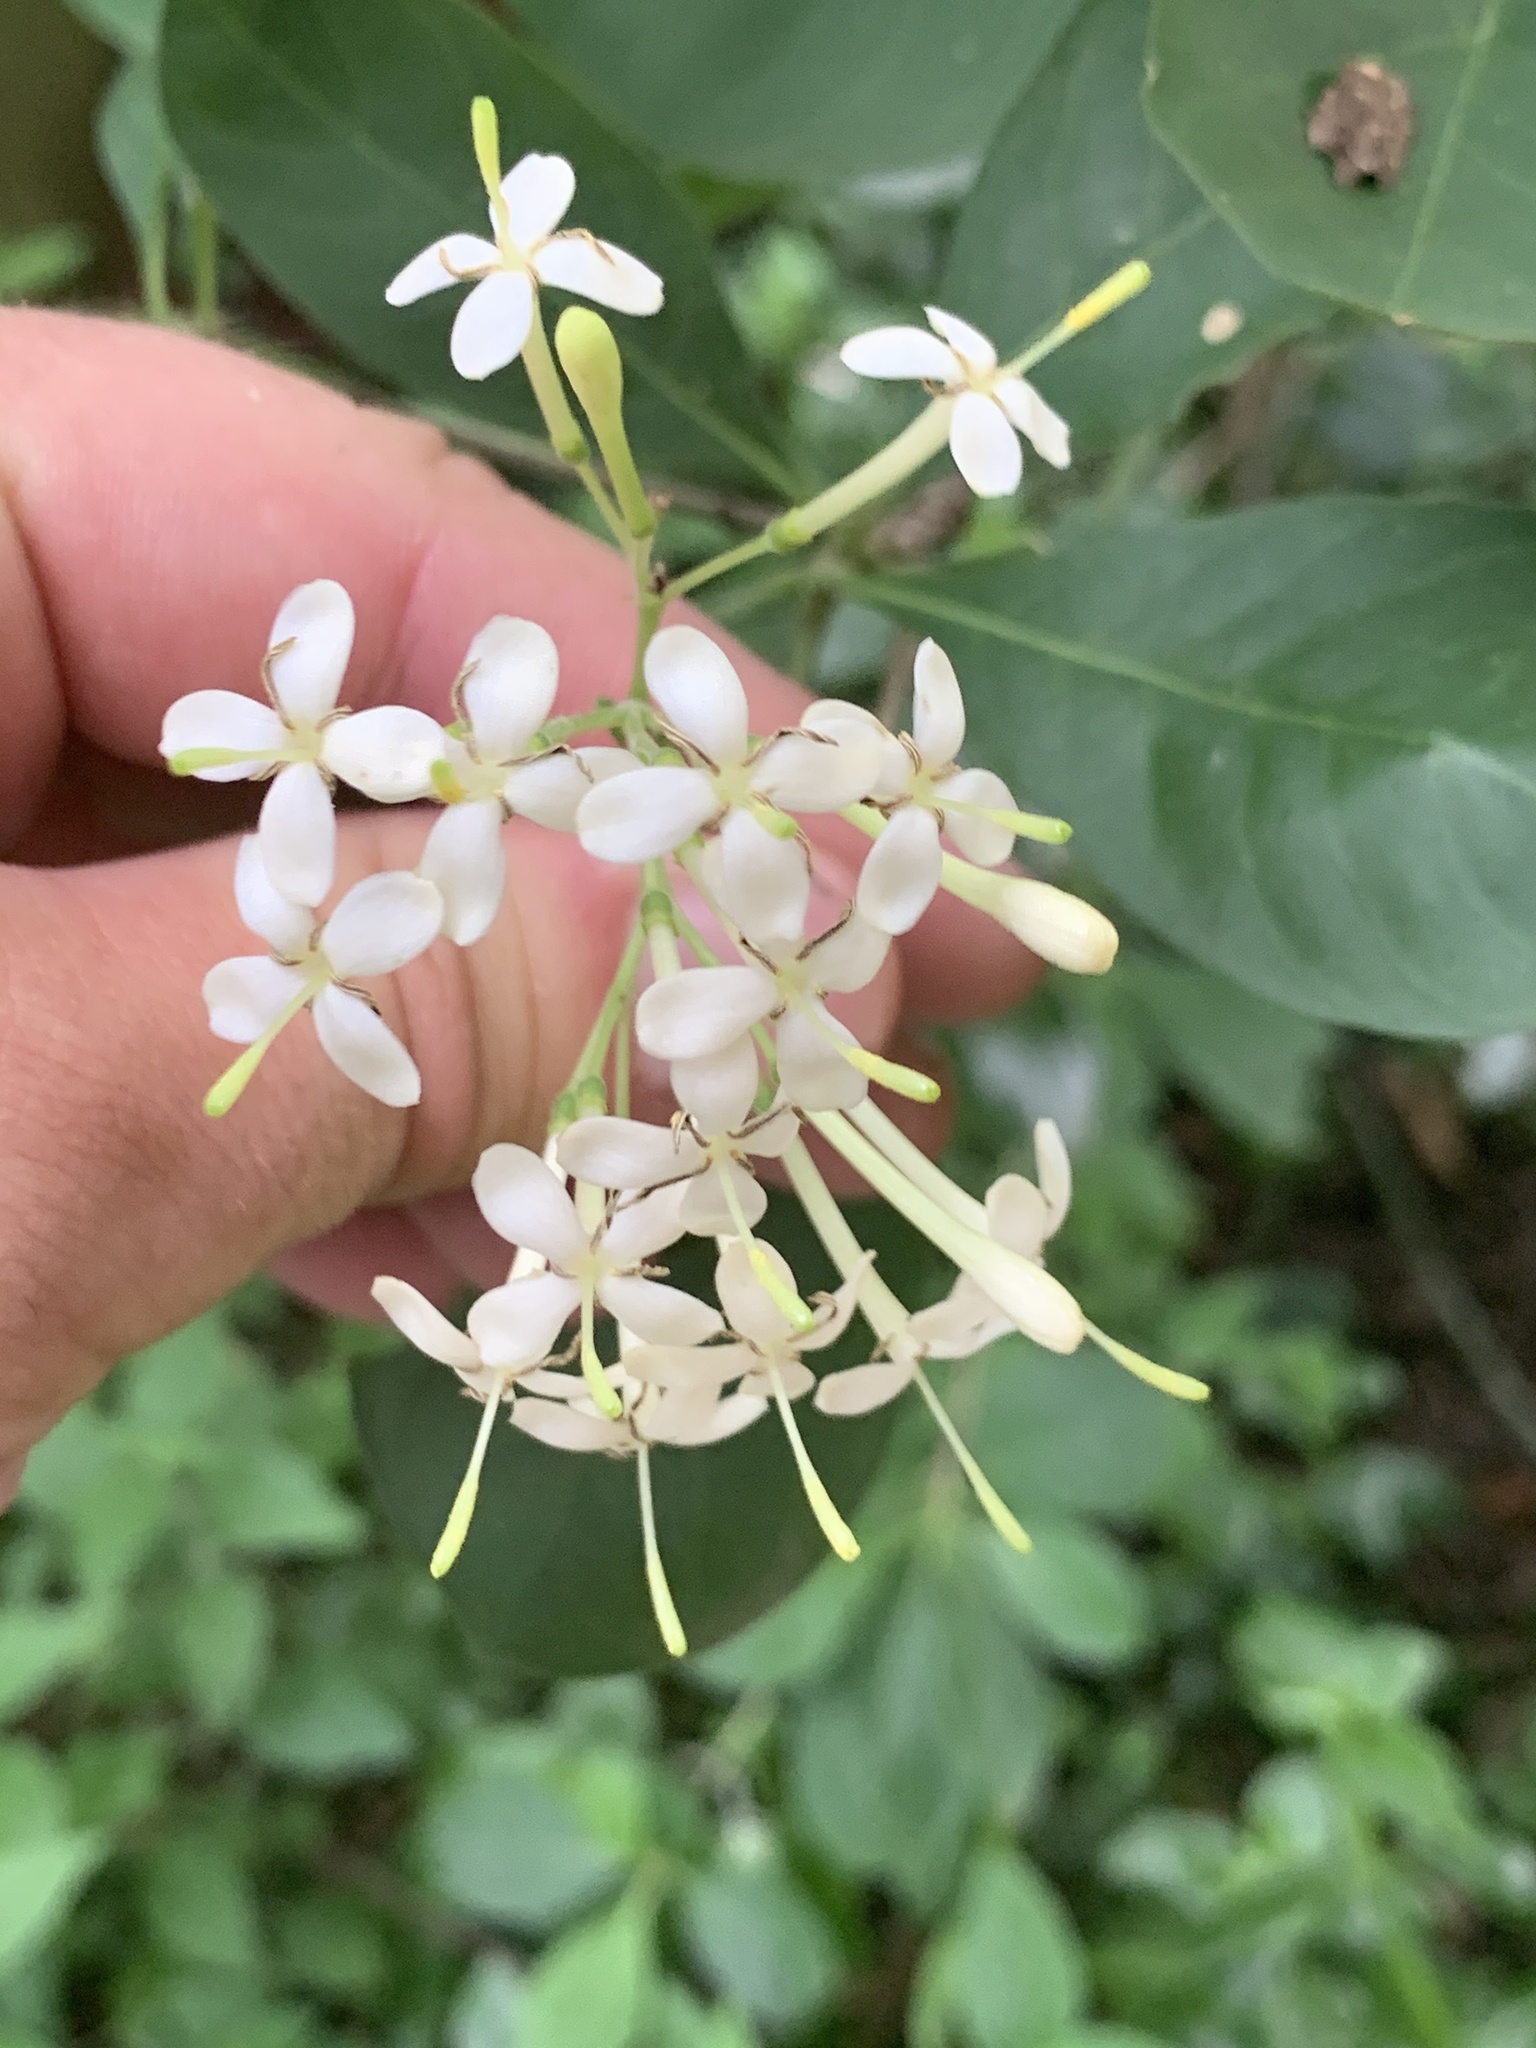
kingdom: Plantae
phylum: Tracheophyta
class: Magnoliopsida
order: Gentianales
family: Rubiaceae
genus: Pavetta
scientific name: Pavetta gardeniifolia
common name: Common brides-bush
